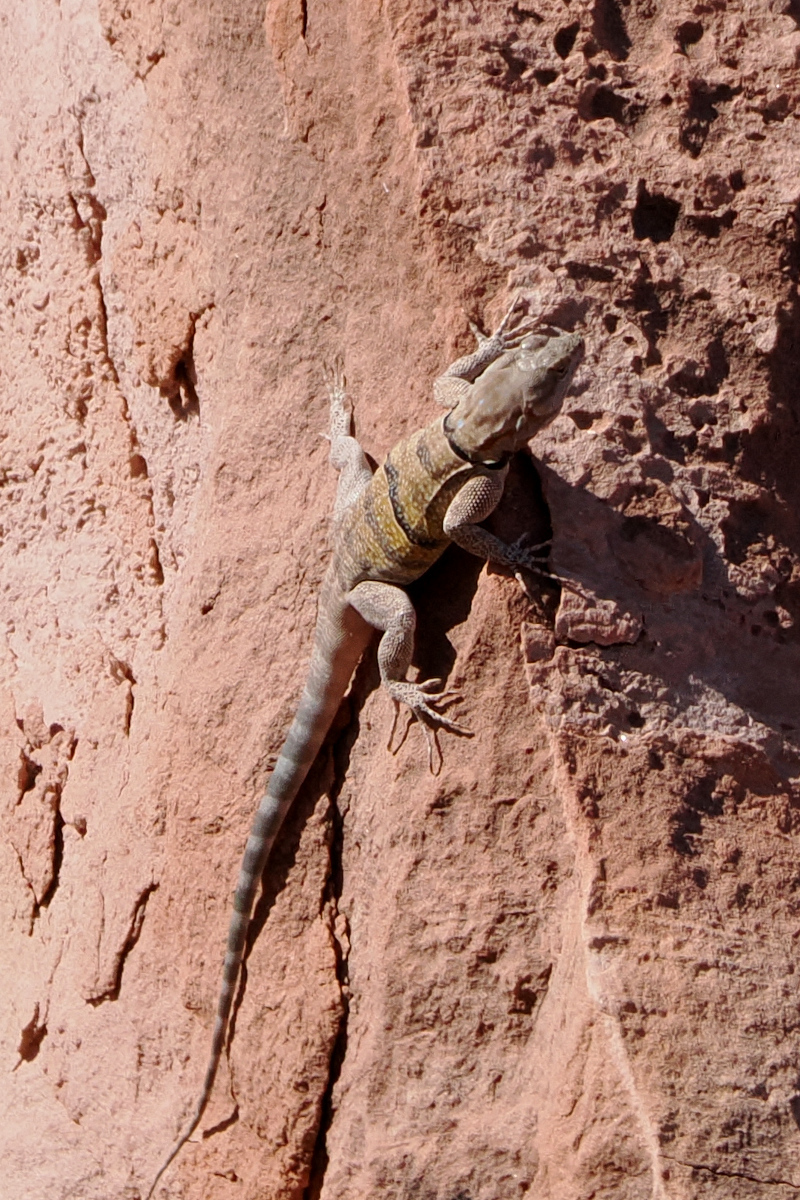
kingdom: Animalia
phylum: Chordata
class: Squamata
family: Phrynosomatidae
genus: Petrosaurus
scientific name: Petrosaurus repens
